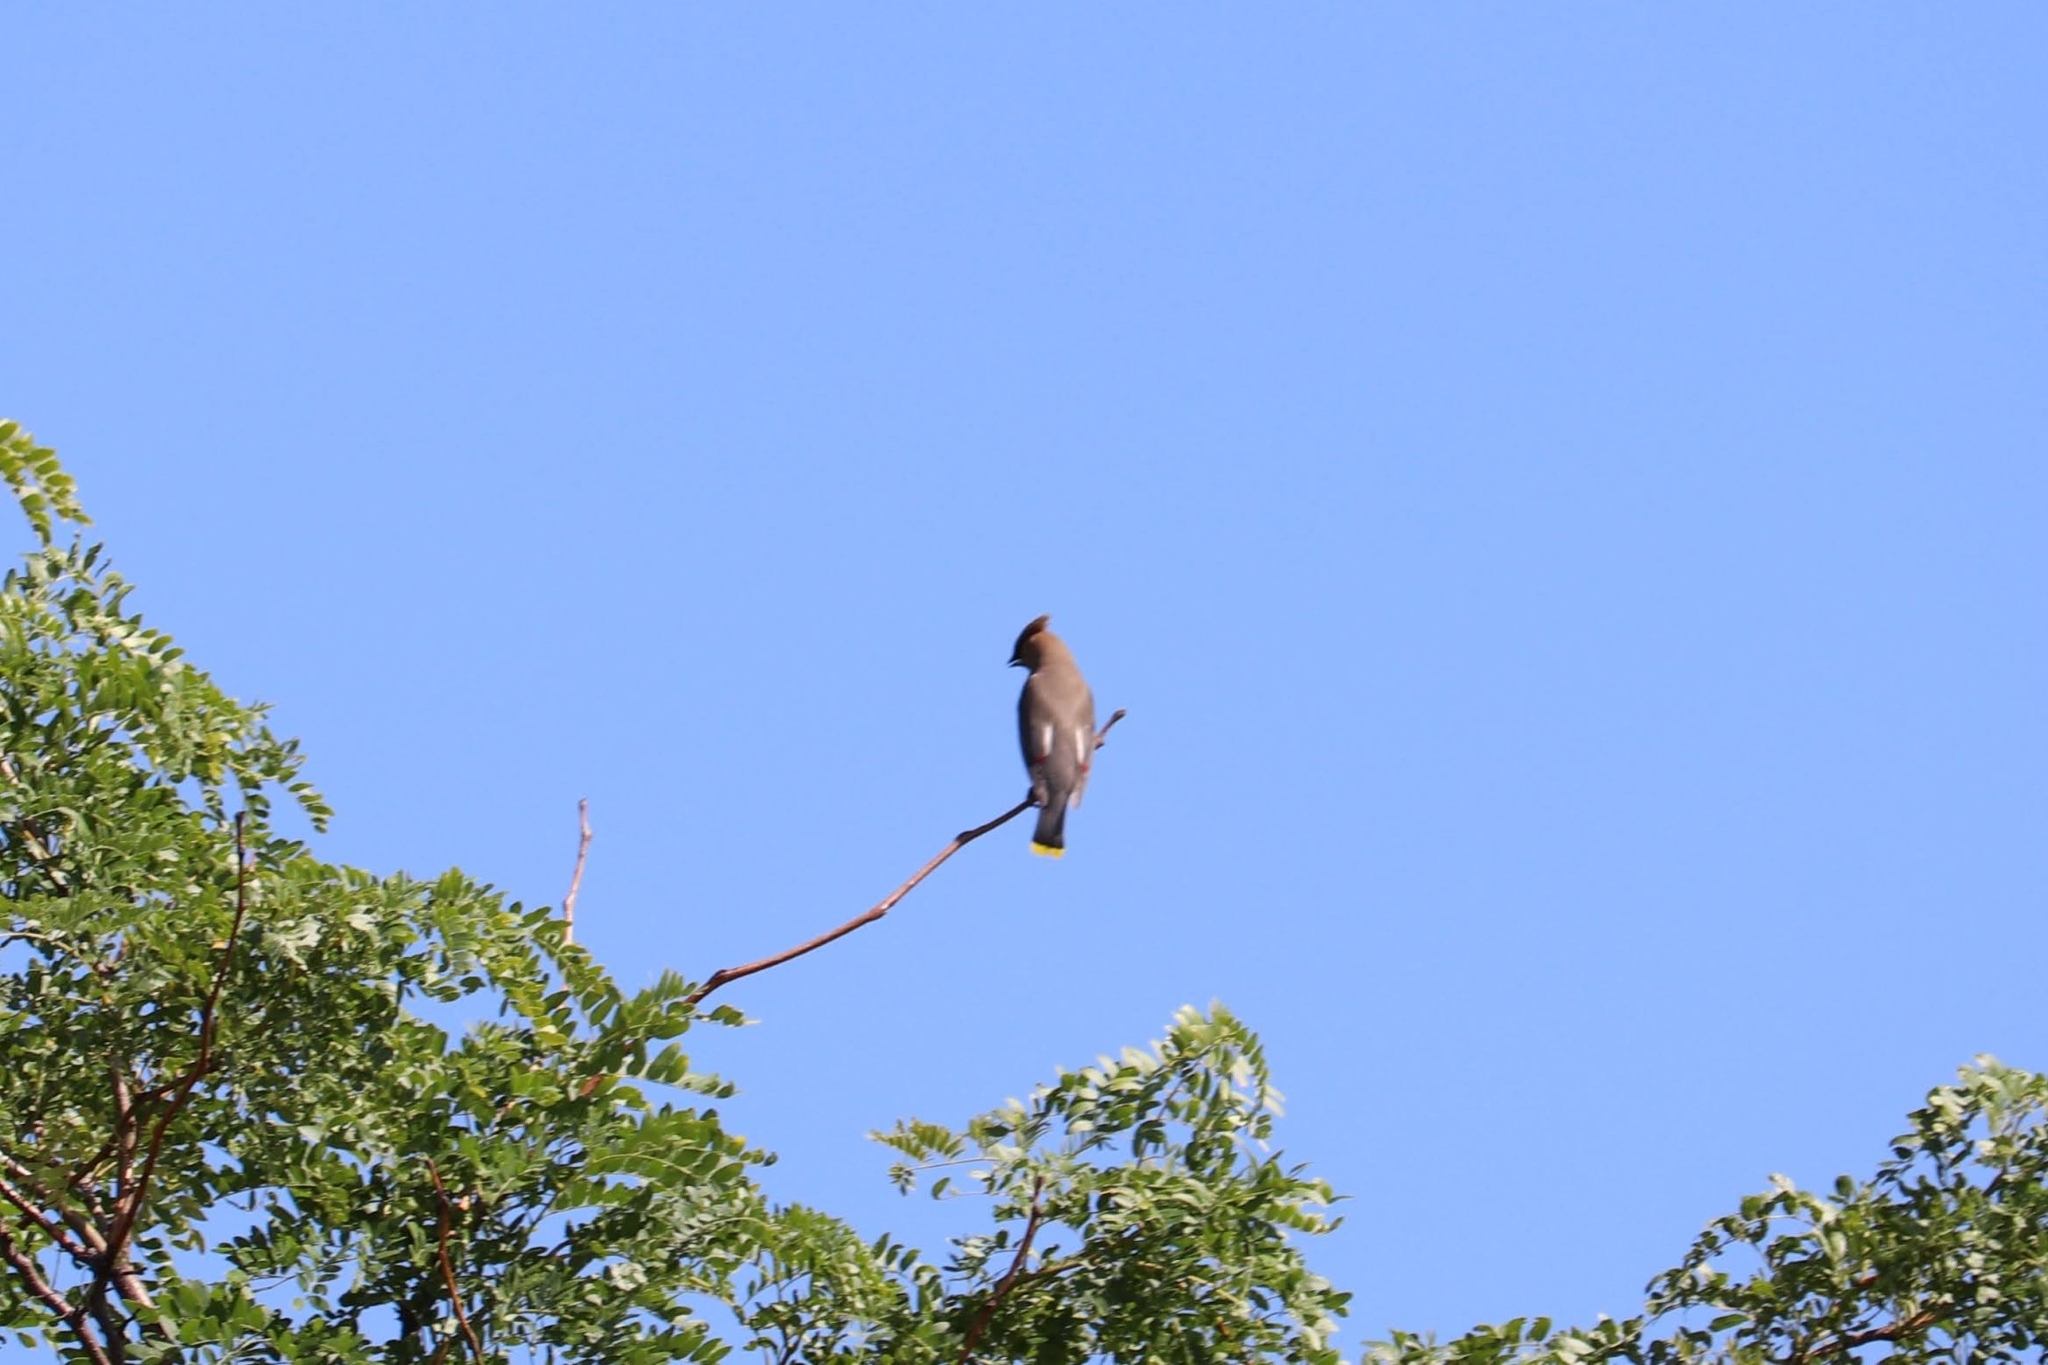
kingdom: Animalia
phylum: Chordata
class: Aves
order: Passeriformes
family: Bombycillidae
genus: Bombycilla
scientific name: Bombycilla cedrorum
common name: Cedar waxwing
